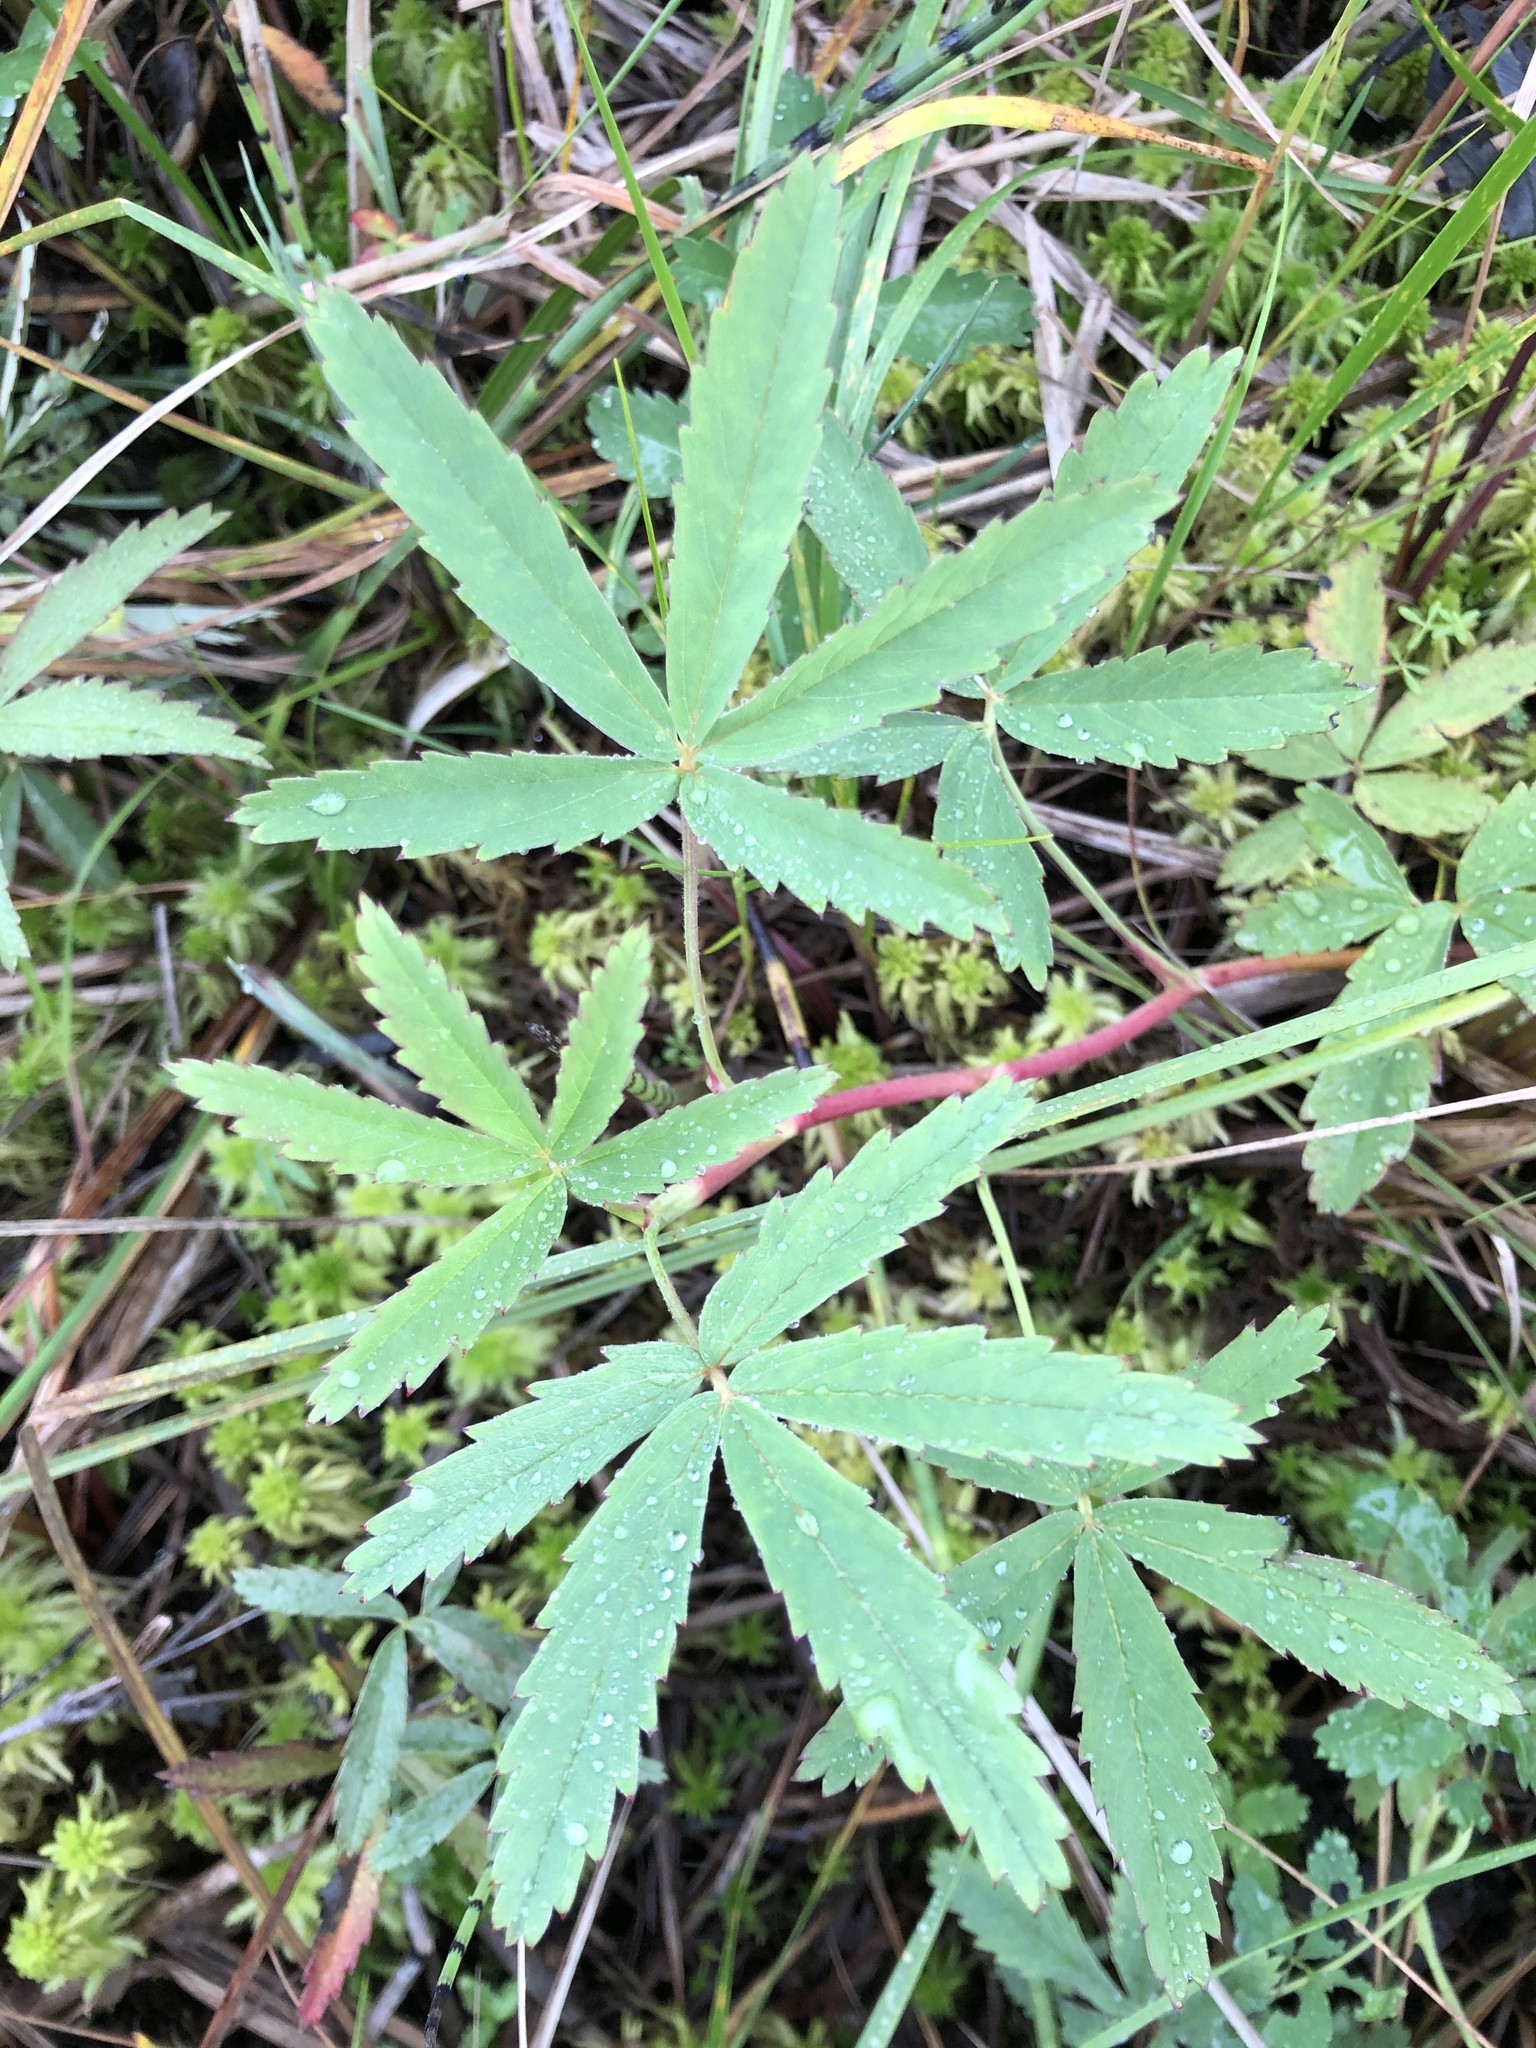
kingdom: Plantae
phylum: Tracheophyta
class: Magnoliopsida
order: Rosales
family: Rosaceae
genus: Comarum
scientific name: Comarum palustre
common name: Marsh cinquefoil
